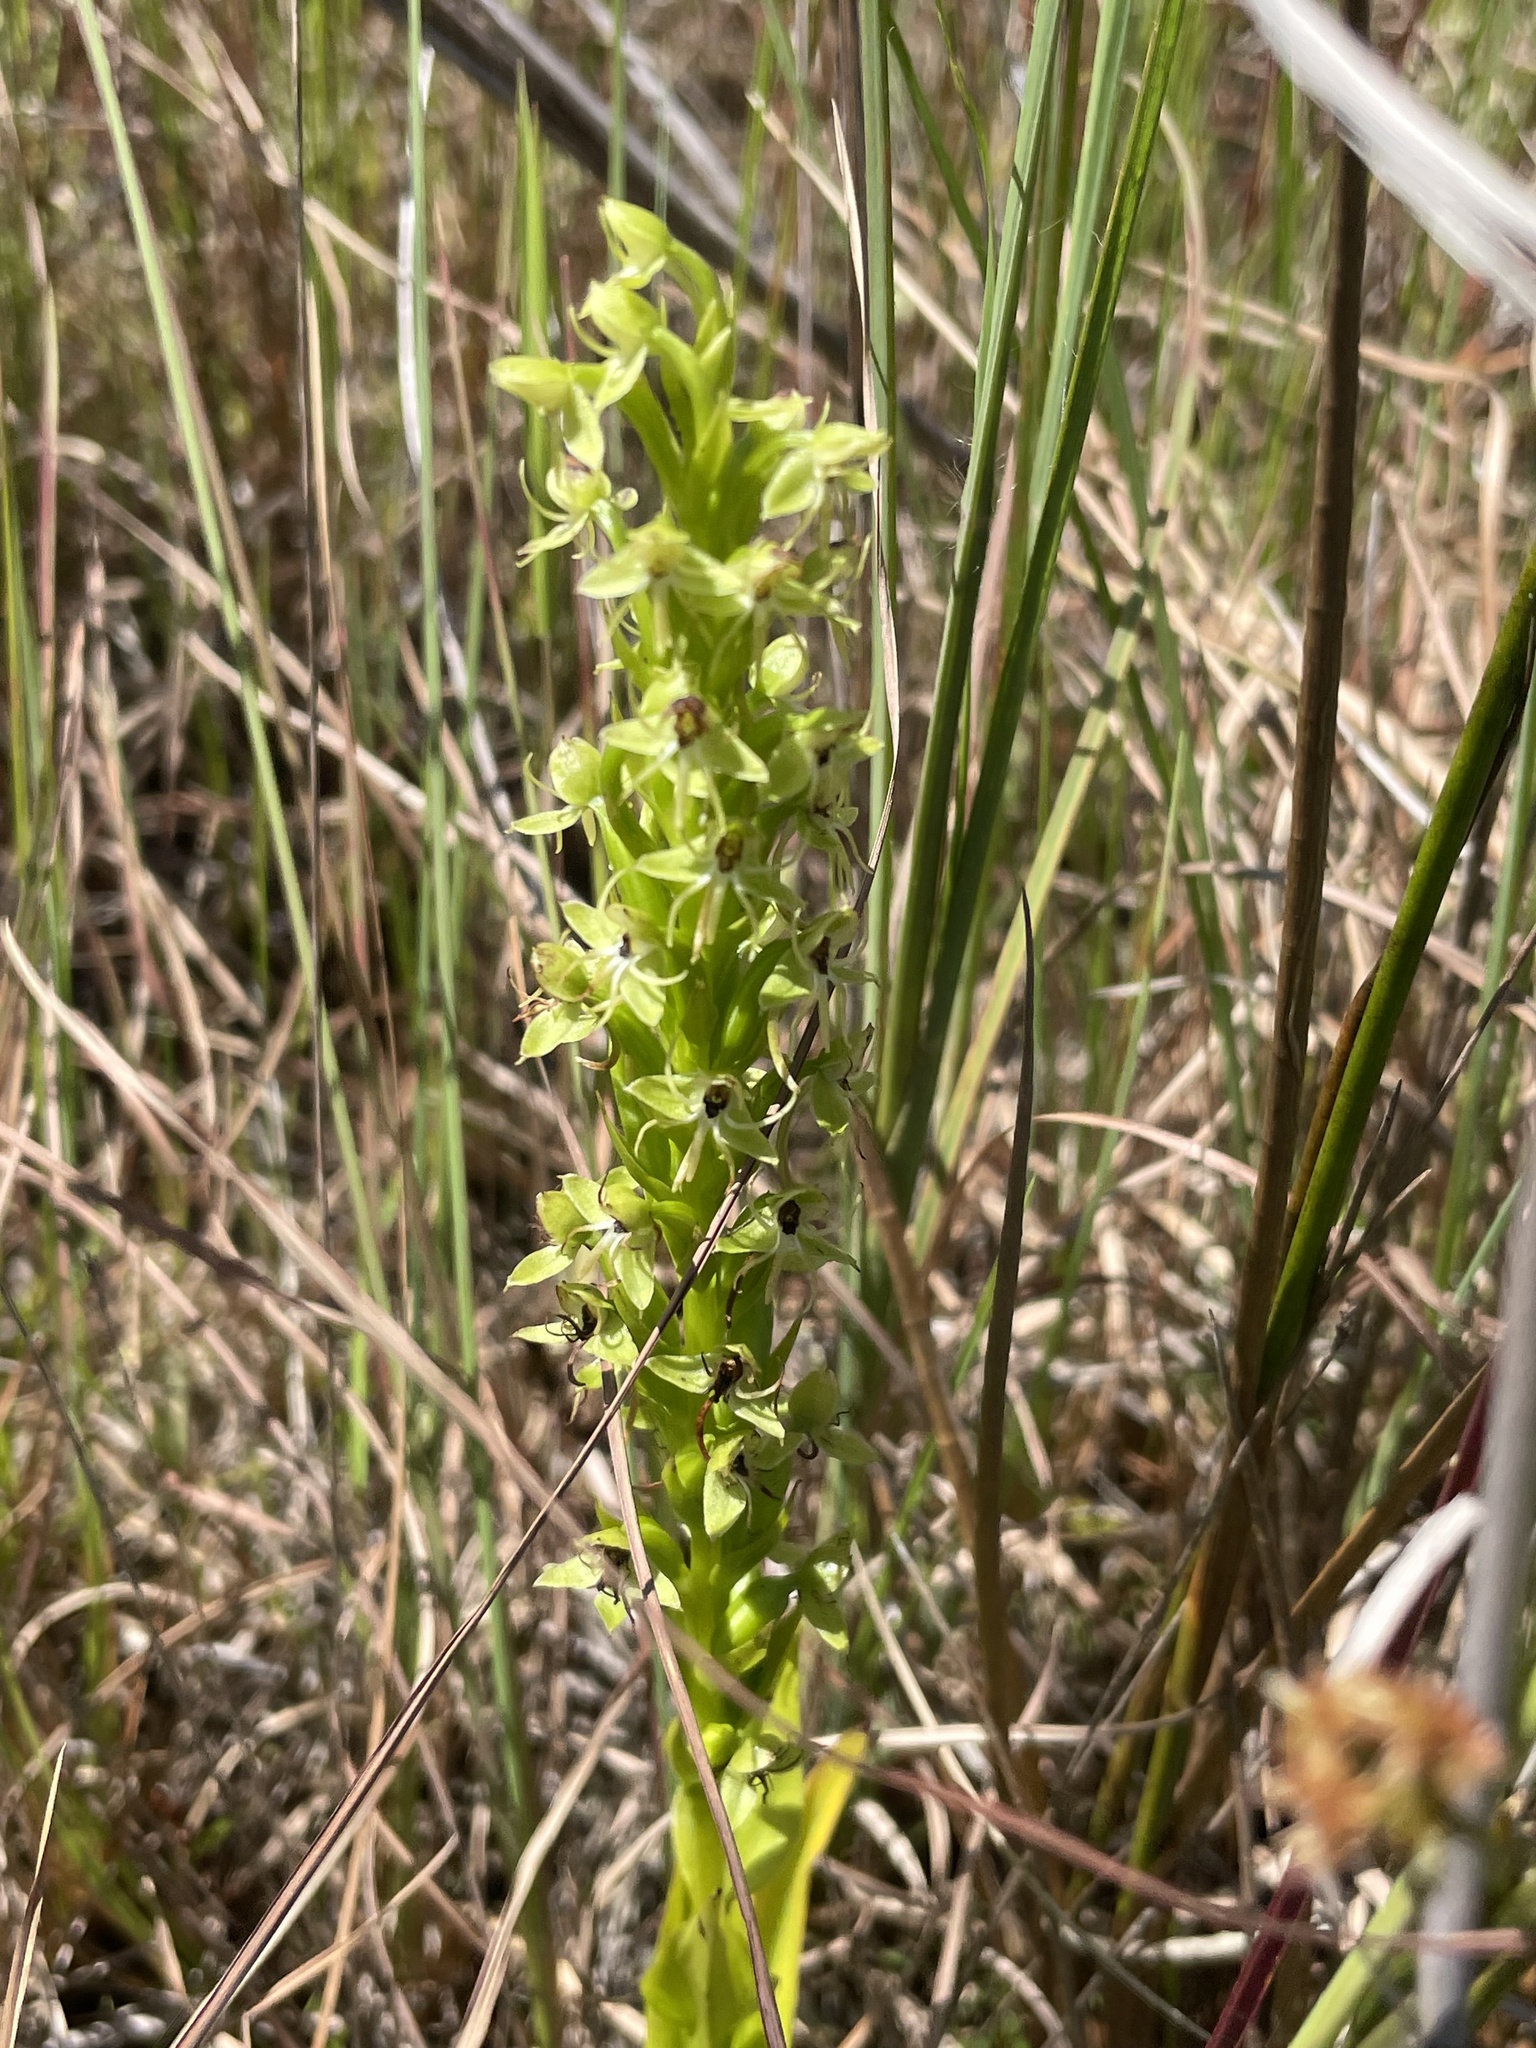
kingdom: Plantae
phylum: Tracheophyta
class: Liliopsida
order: Asparagales
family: Orchidaceae
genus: Habenaria
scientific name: Habenaria repens
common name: Water orchid
